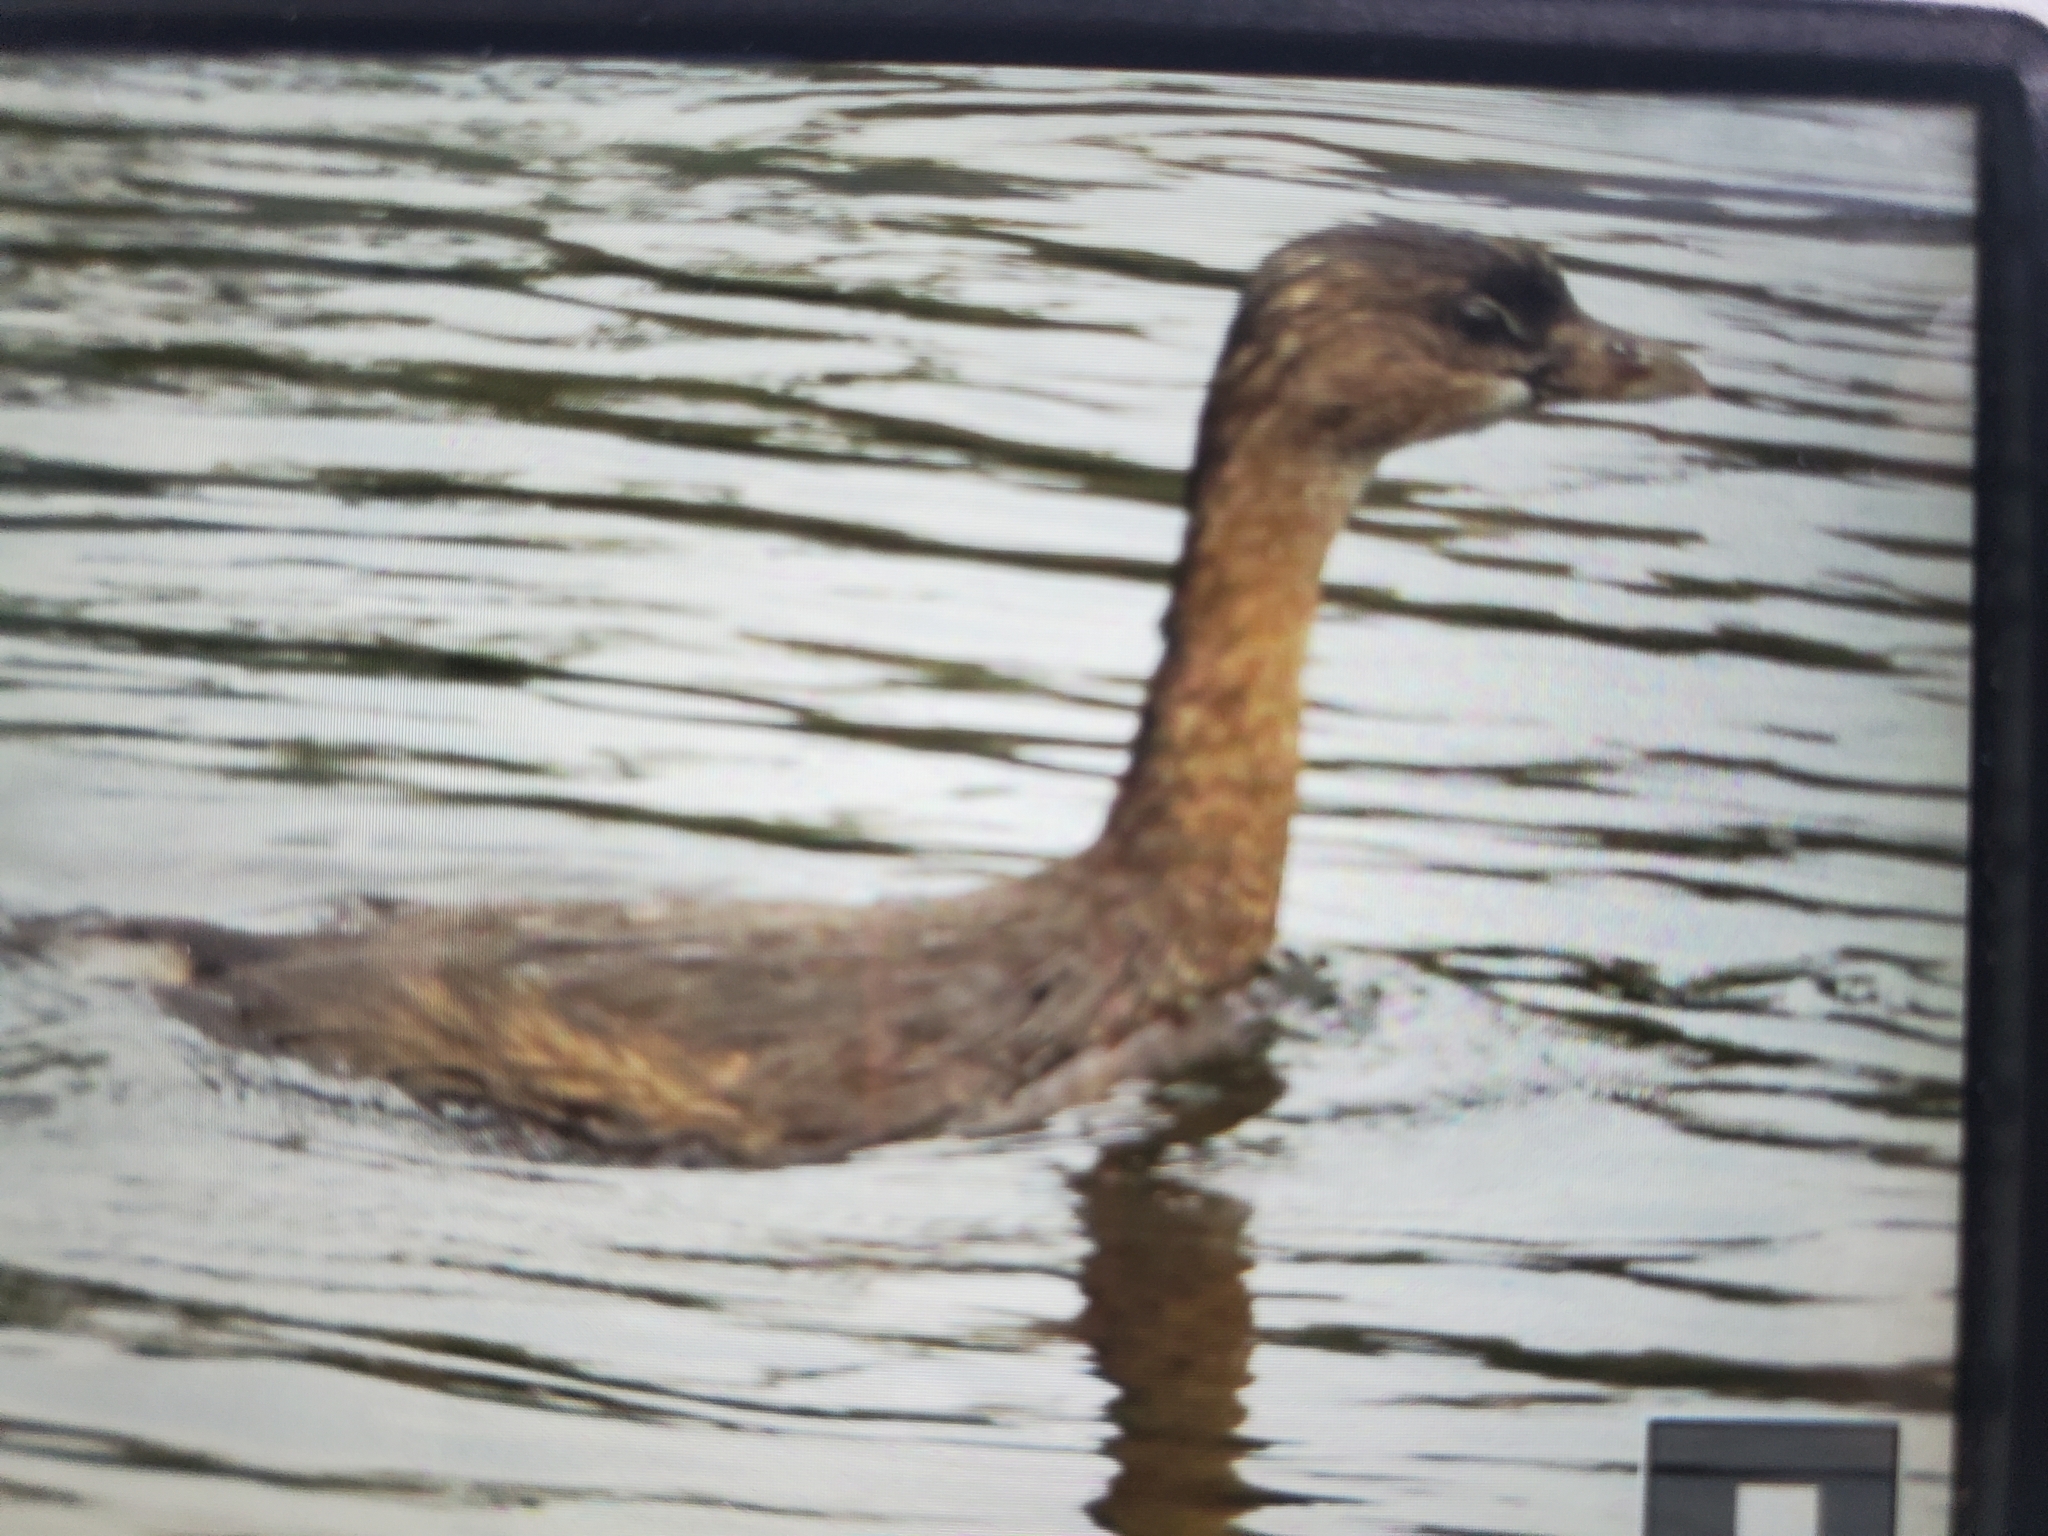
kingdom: Animalia
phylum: Chordata
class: Aves
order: Podicipediformes
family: Podicipedidae
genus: Podilymbus
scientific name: Podilymbus podiceps
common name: Pied-billed grebe
